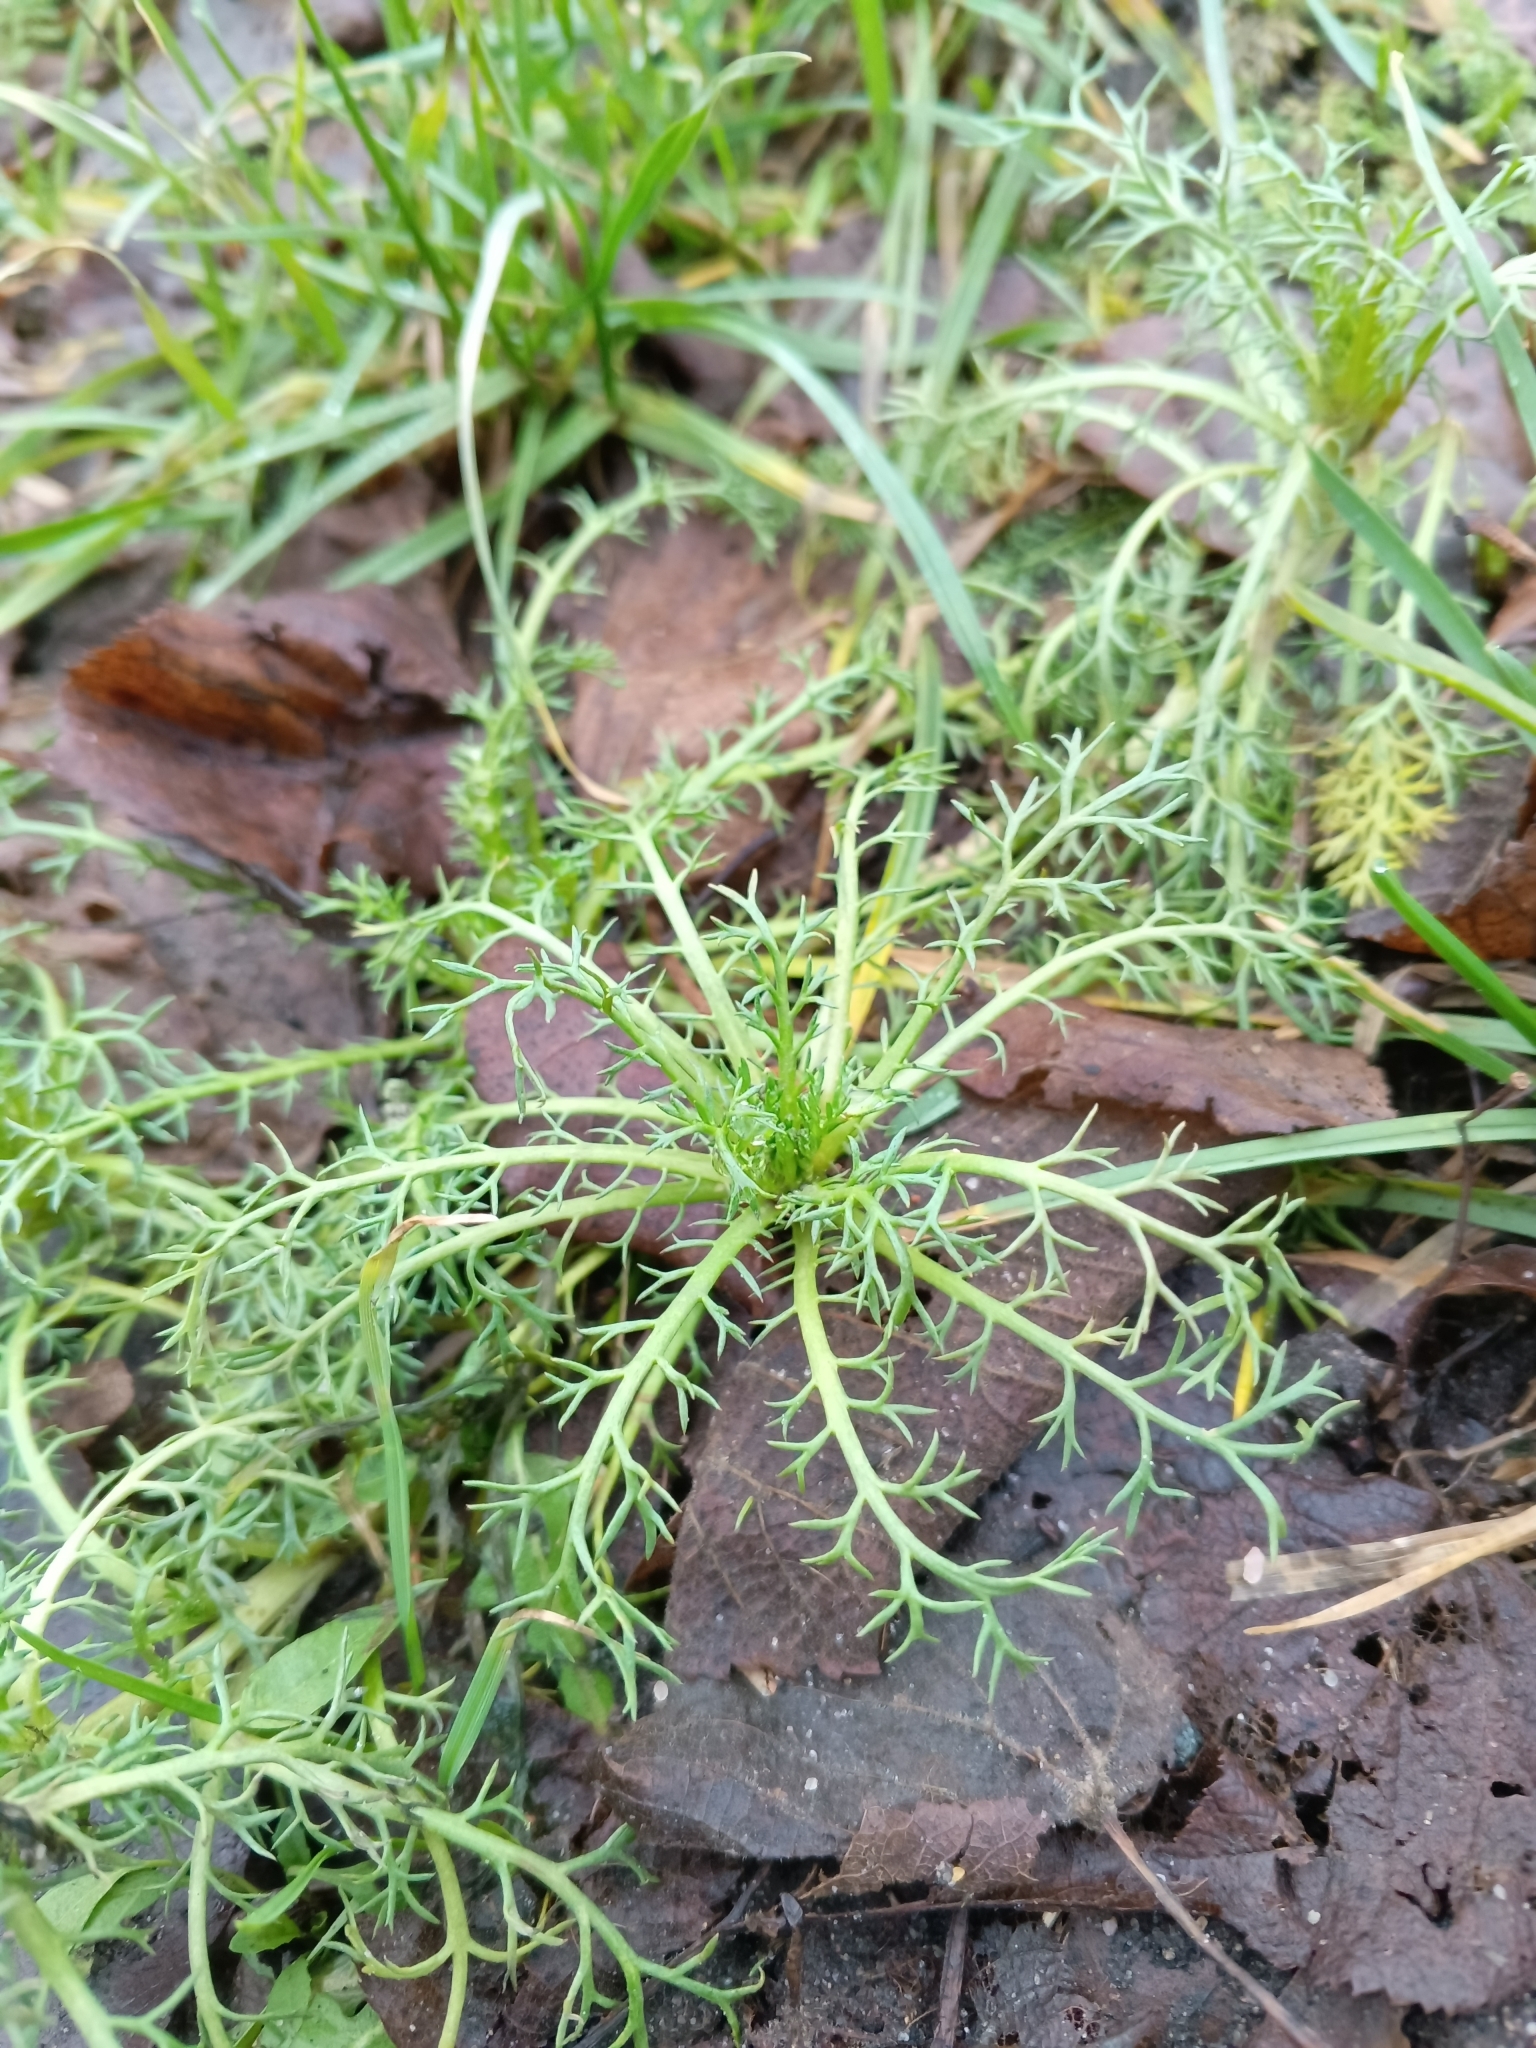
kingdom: Plantae
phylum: Tracheophyta
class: Magnoliopsida
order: Asterales
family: Asteraceae
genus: Tripleurospermum
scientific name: Tripleurospermum inodorum
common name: Scentless mayweed
